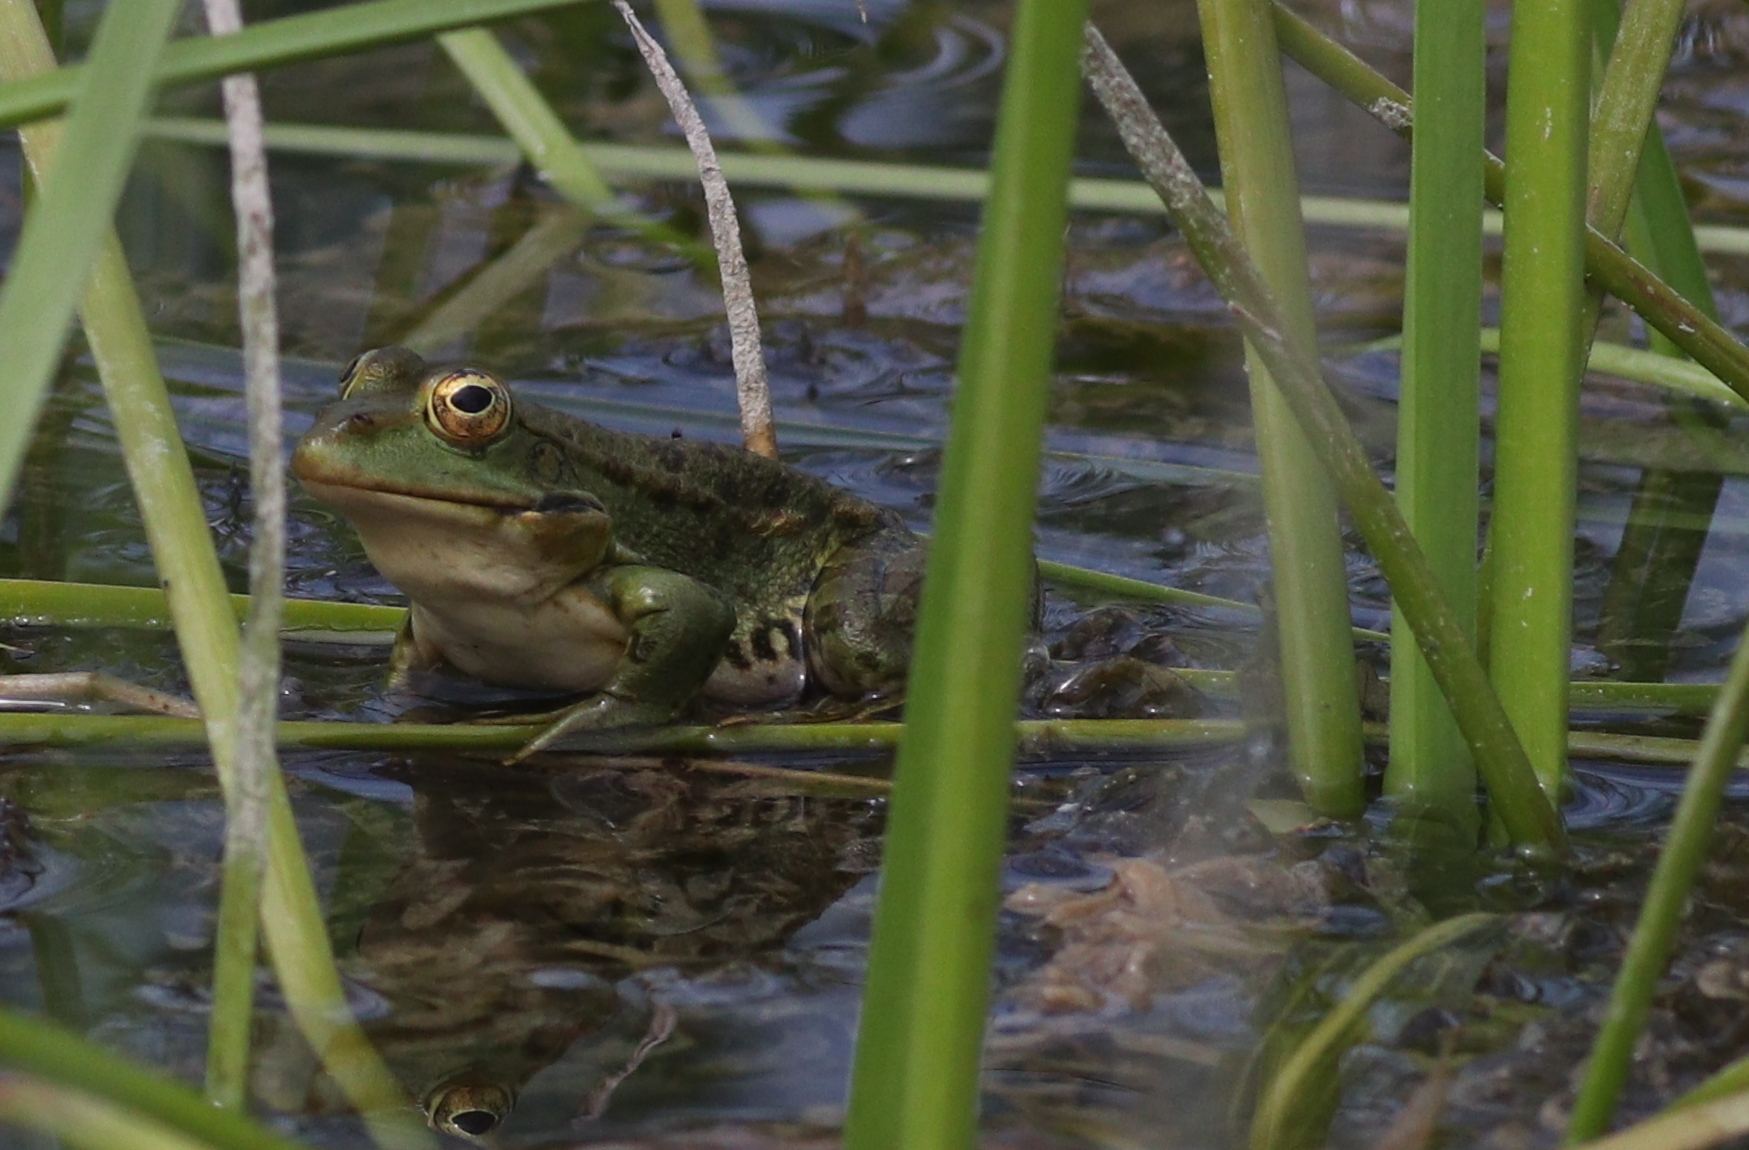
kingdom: Animalia
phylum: Chordata
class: Amphibia
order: Anura
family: Ranidae
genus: Pelophylax
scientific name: Pelophylax ridibundus
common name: Marsh frog
